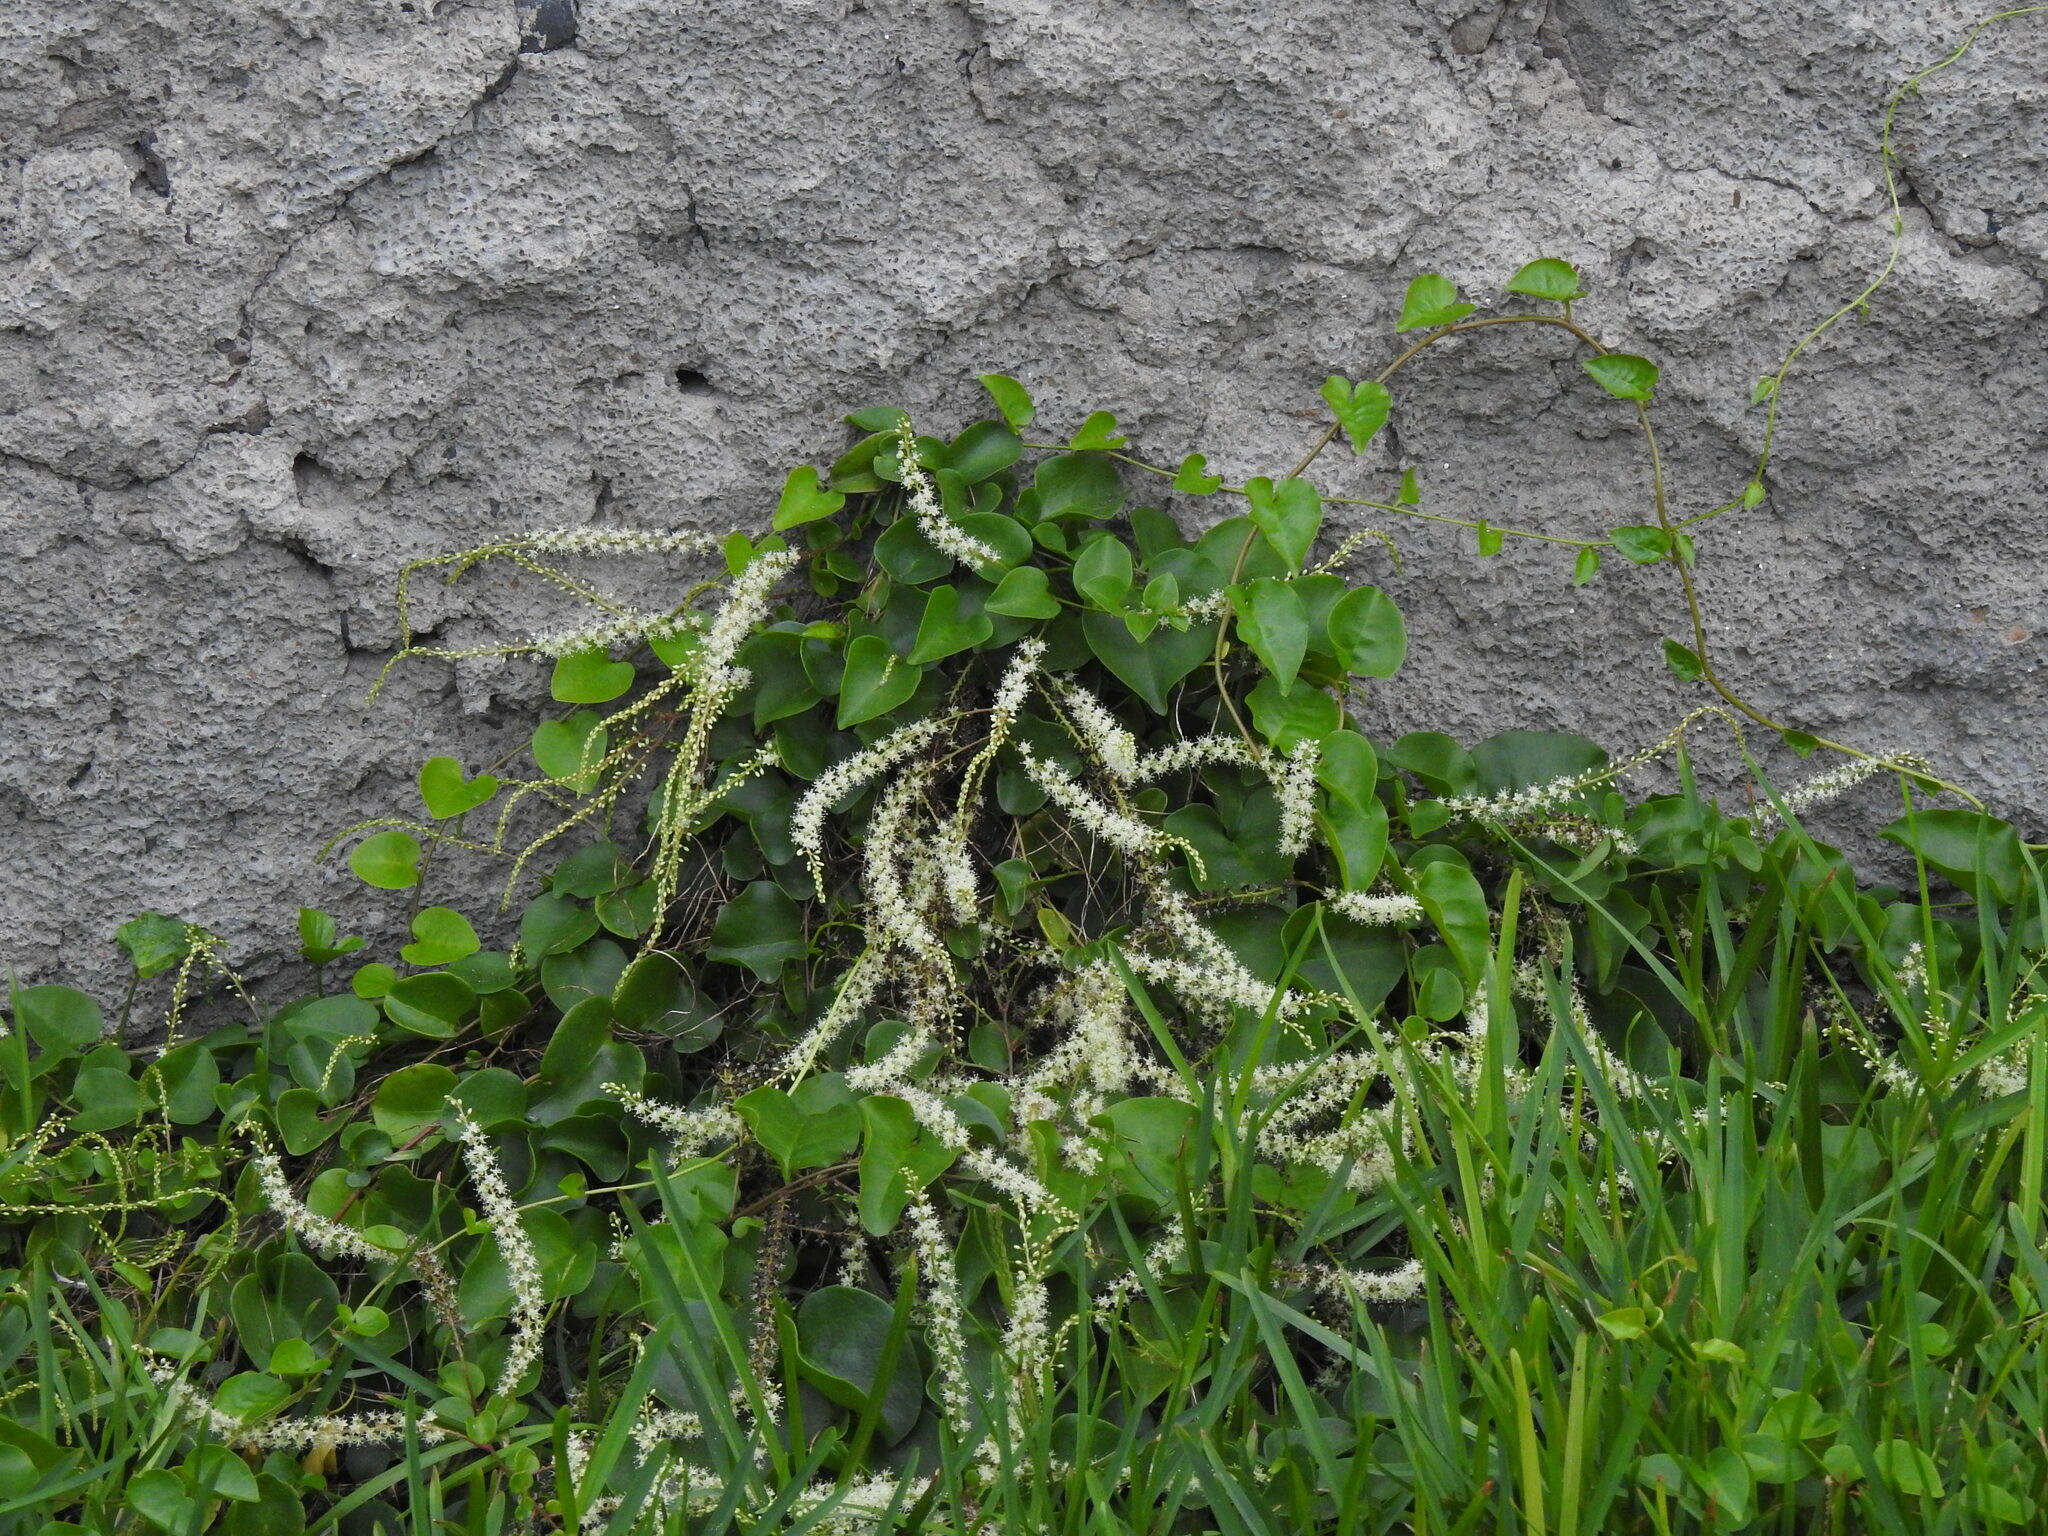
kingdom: Plantae
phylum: Tracheophyta
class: Magnoliopsida
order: Caryophyllales
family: Basellaceae
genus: Anredera
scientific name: Anredera cordifolia
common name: Heartleaf madeiravine
